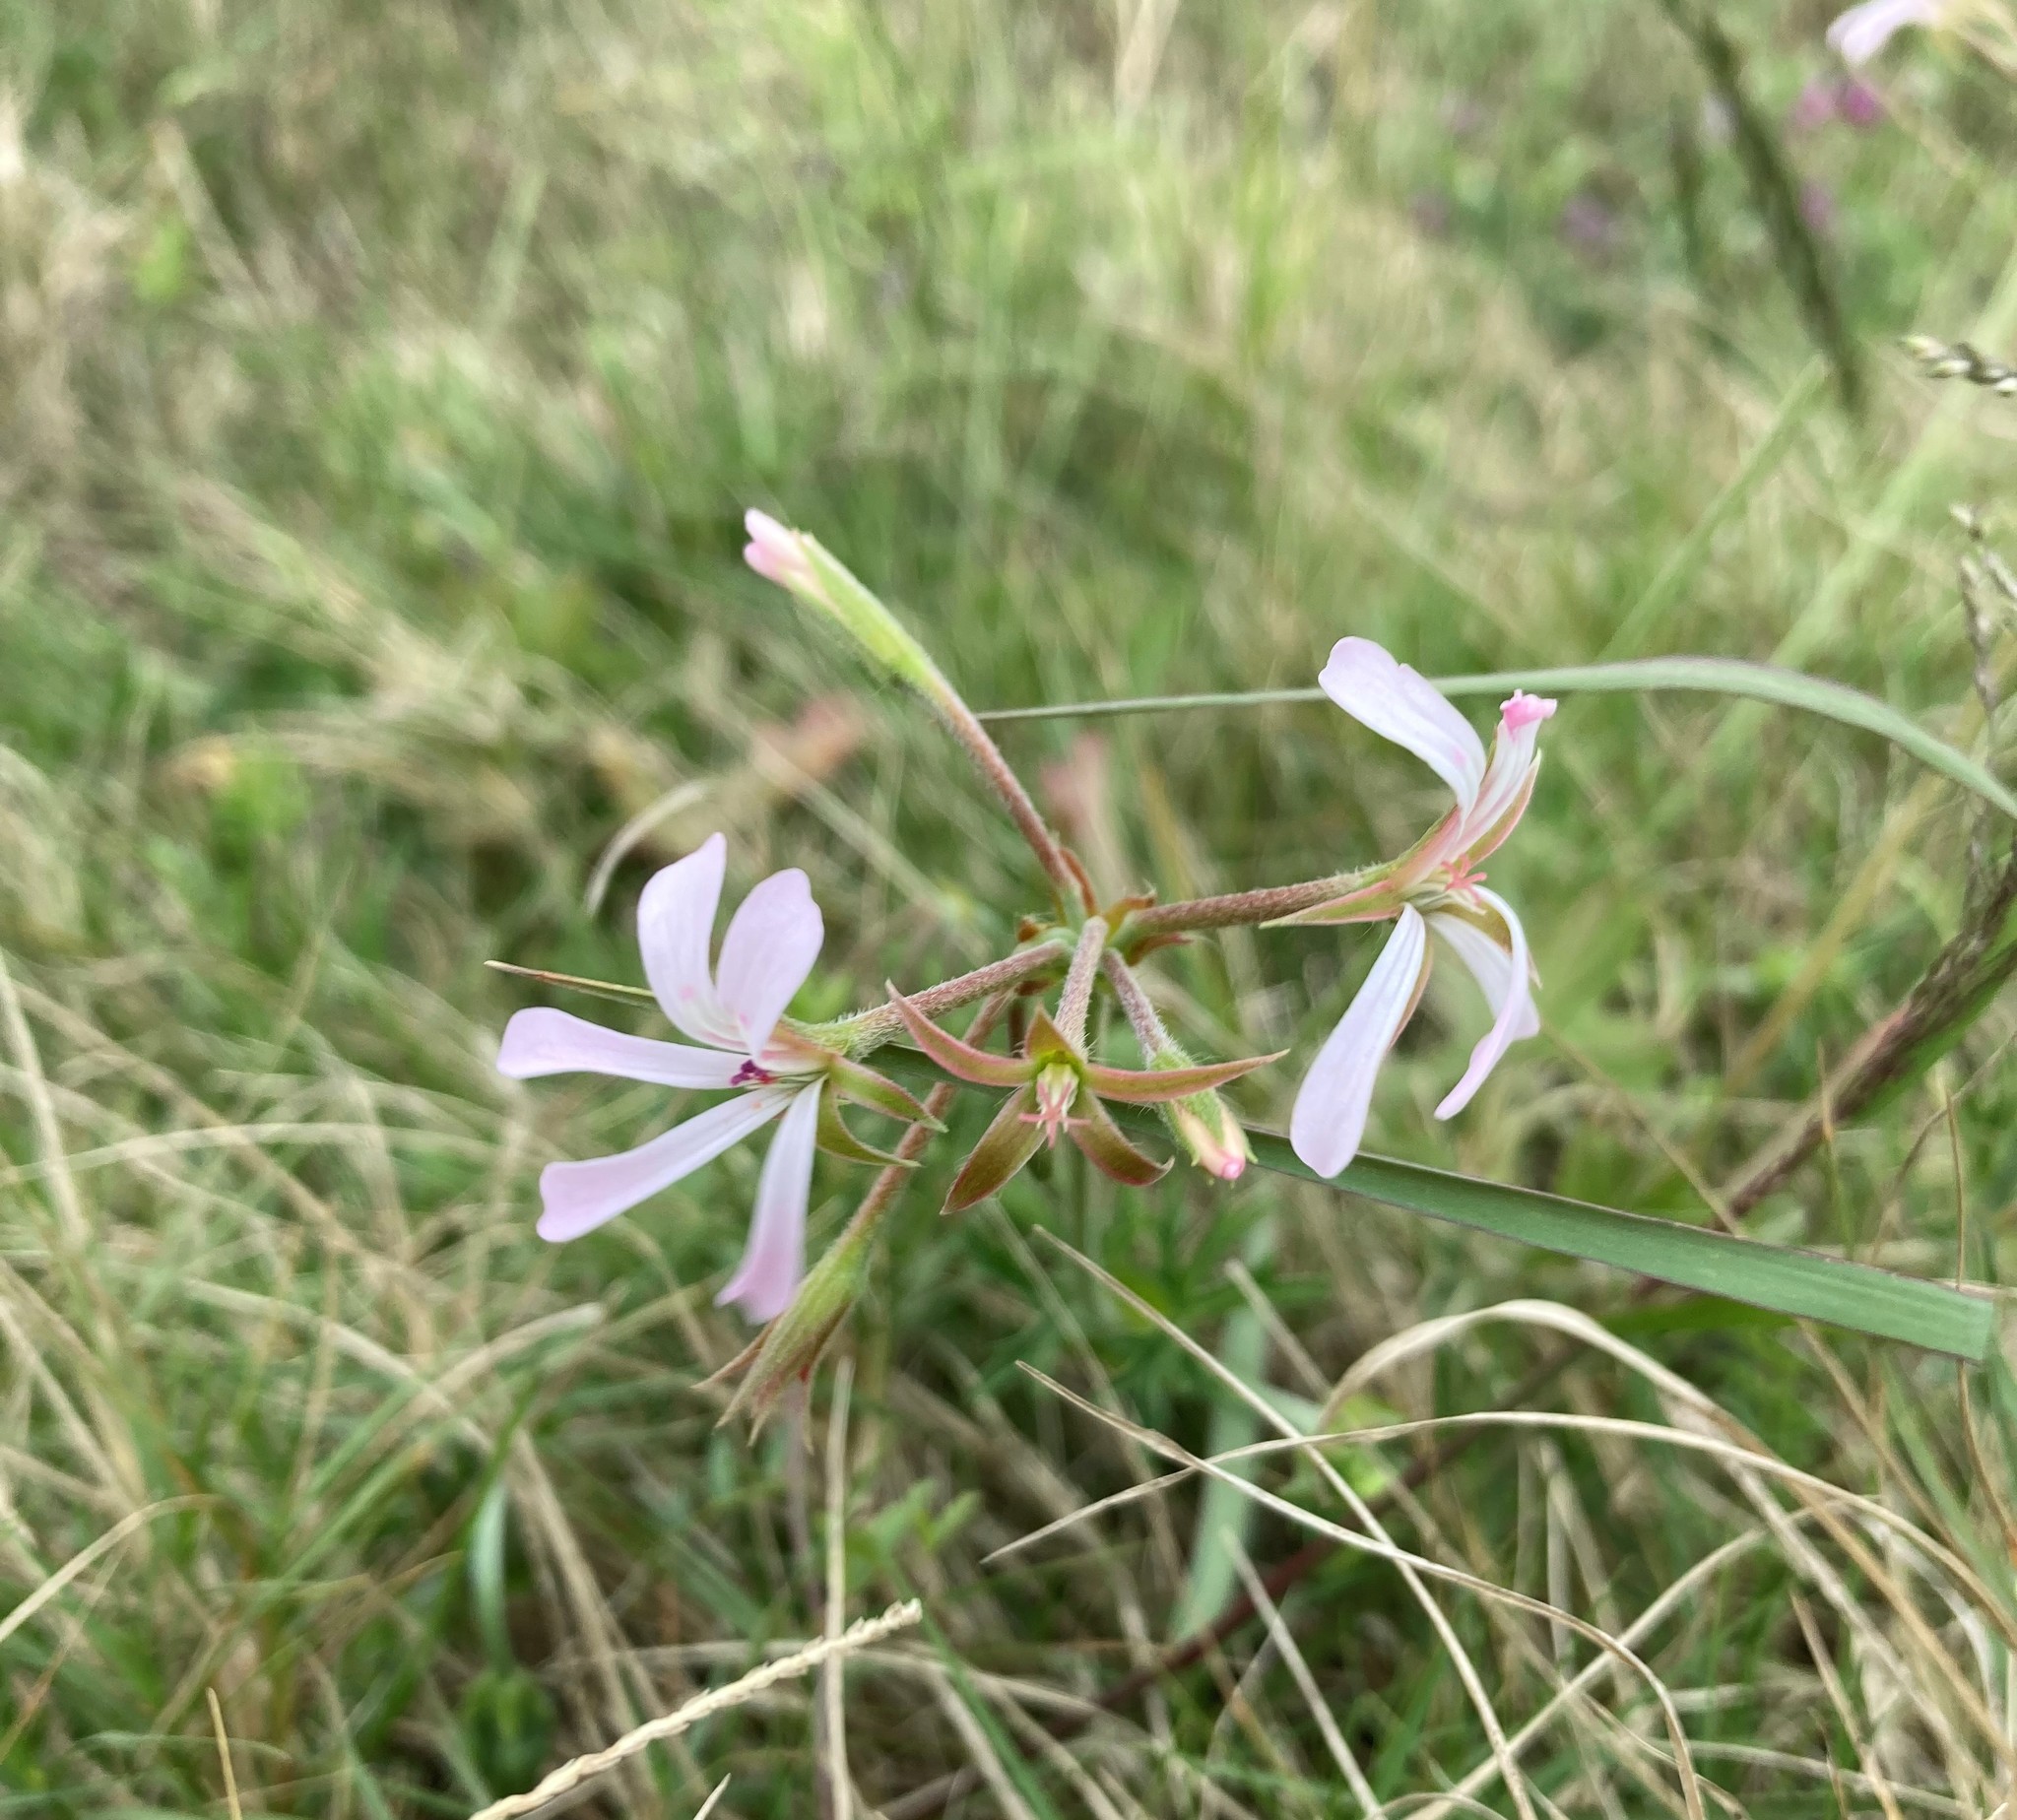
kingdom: Plantae
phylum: Tracheophyta
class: Magnoliopsida
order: Geraniales
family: Geraniaceae
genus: Pelargonium
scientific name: Pelargonium alchemilloides
